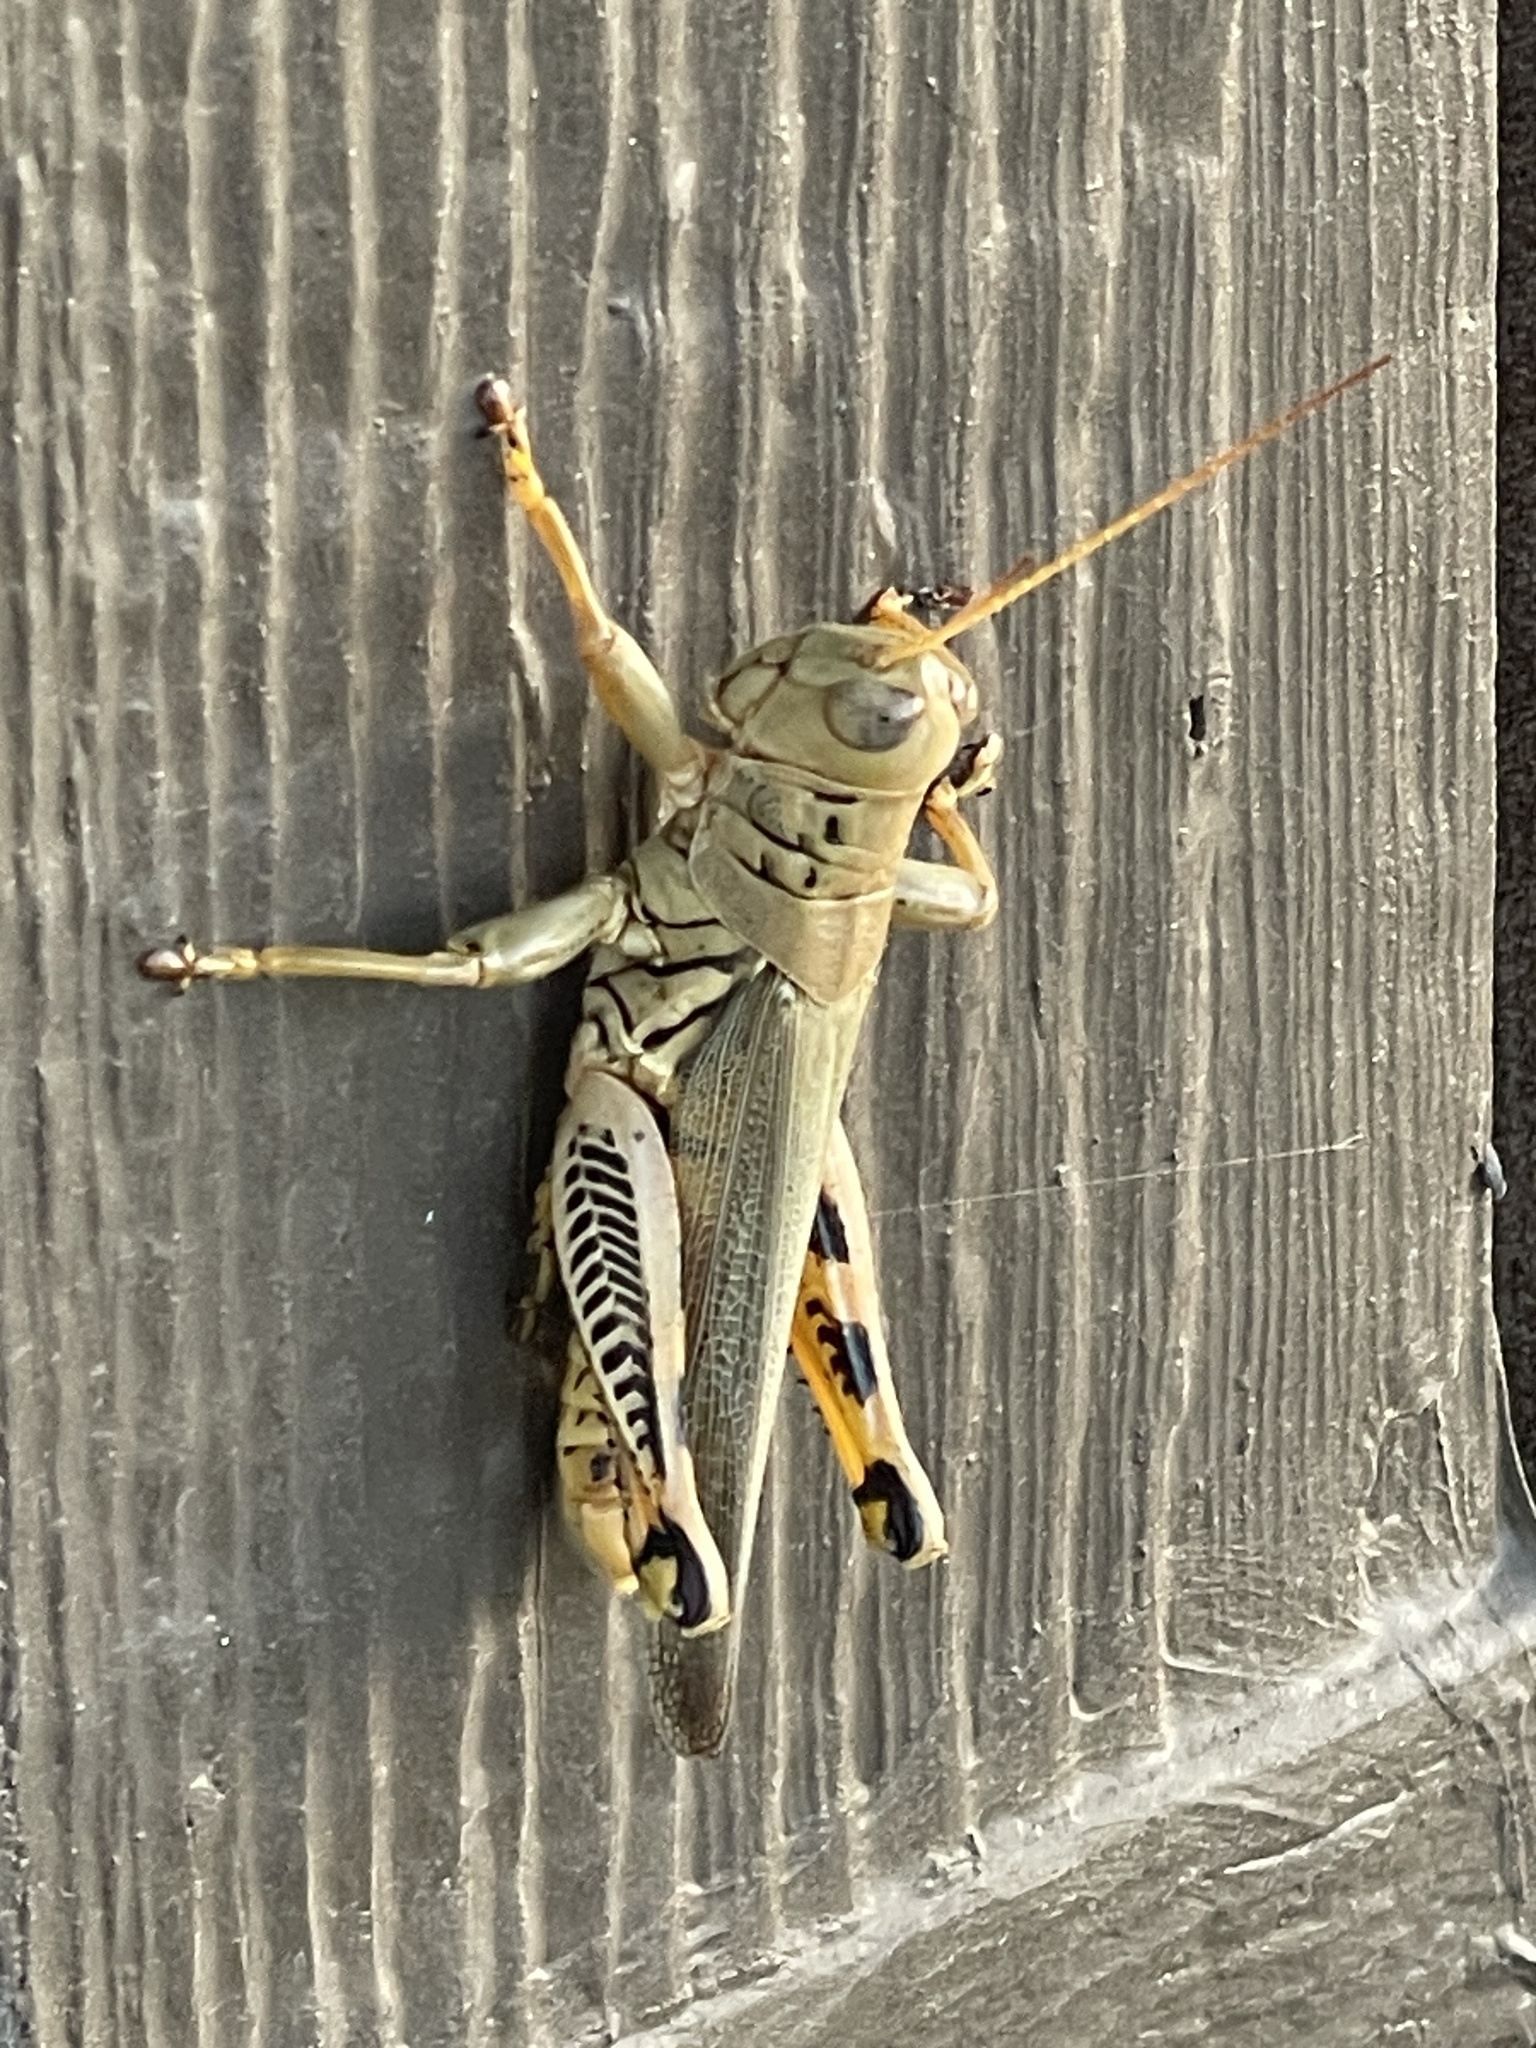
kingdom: Animalia
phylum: Arthropoda
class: Insecta
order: Orthoptera
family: Acrididae
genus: Melanoplus
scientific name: Melanoplus differentialis
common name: Differential grasshopper
